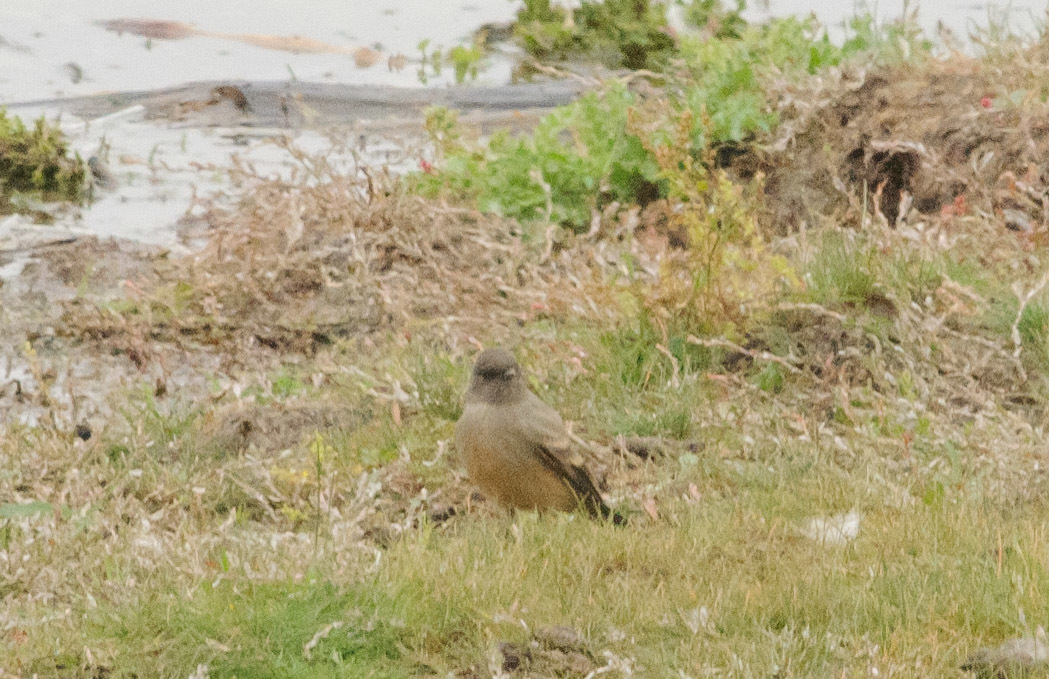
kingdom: Animalia
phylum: Chordata
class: Aves
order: Passeriformes
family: Tyrannidae
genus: Sayornis
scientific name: Sayornis saya
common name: Say's phoebe
